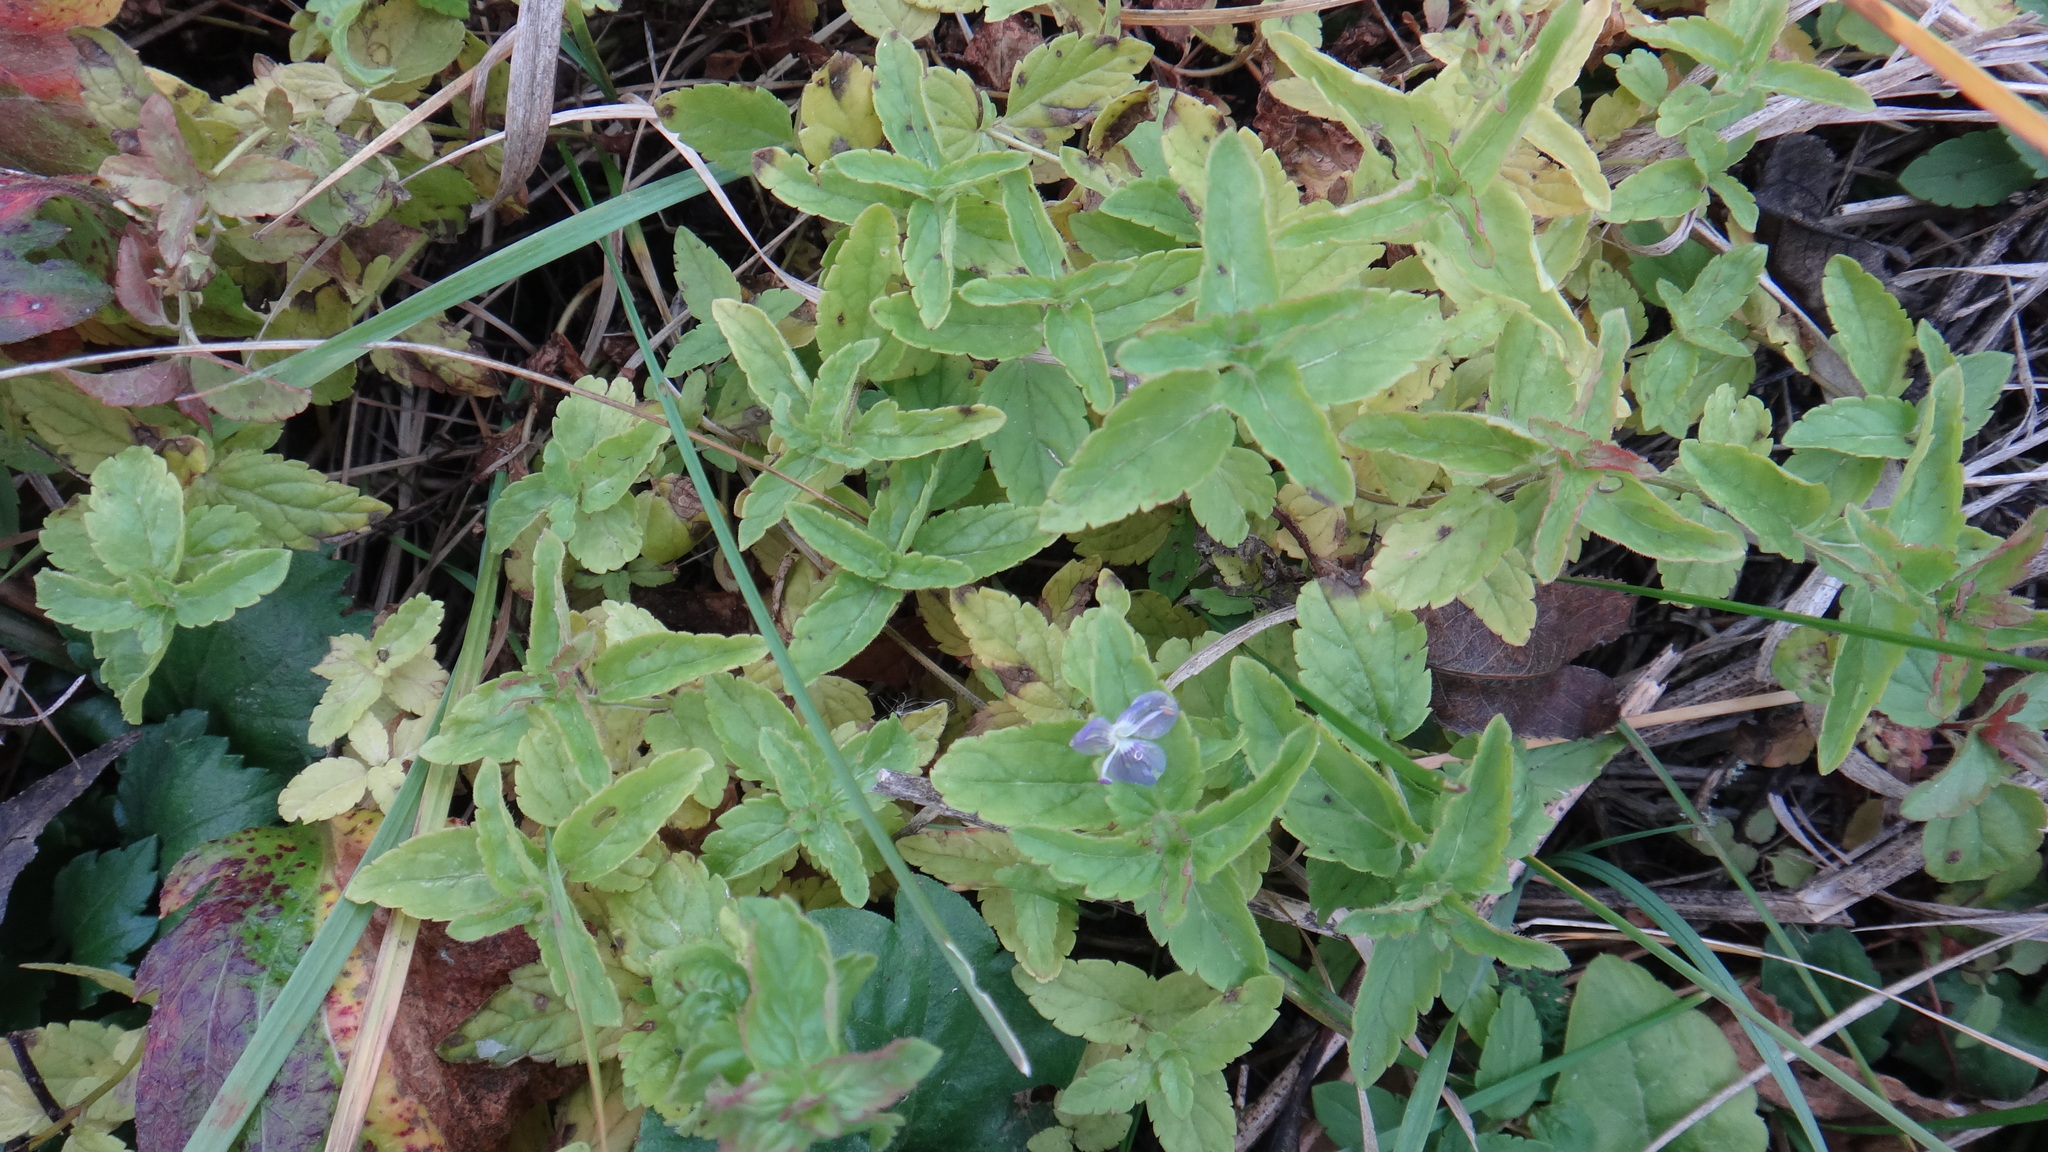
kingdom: Plantae
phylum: Tracheophyta
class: Magnoliopsida
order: Lamiales
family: Plantaginaceae
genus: Veronica
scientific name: Veronica chamaedrys
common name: Germander speedwell
